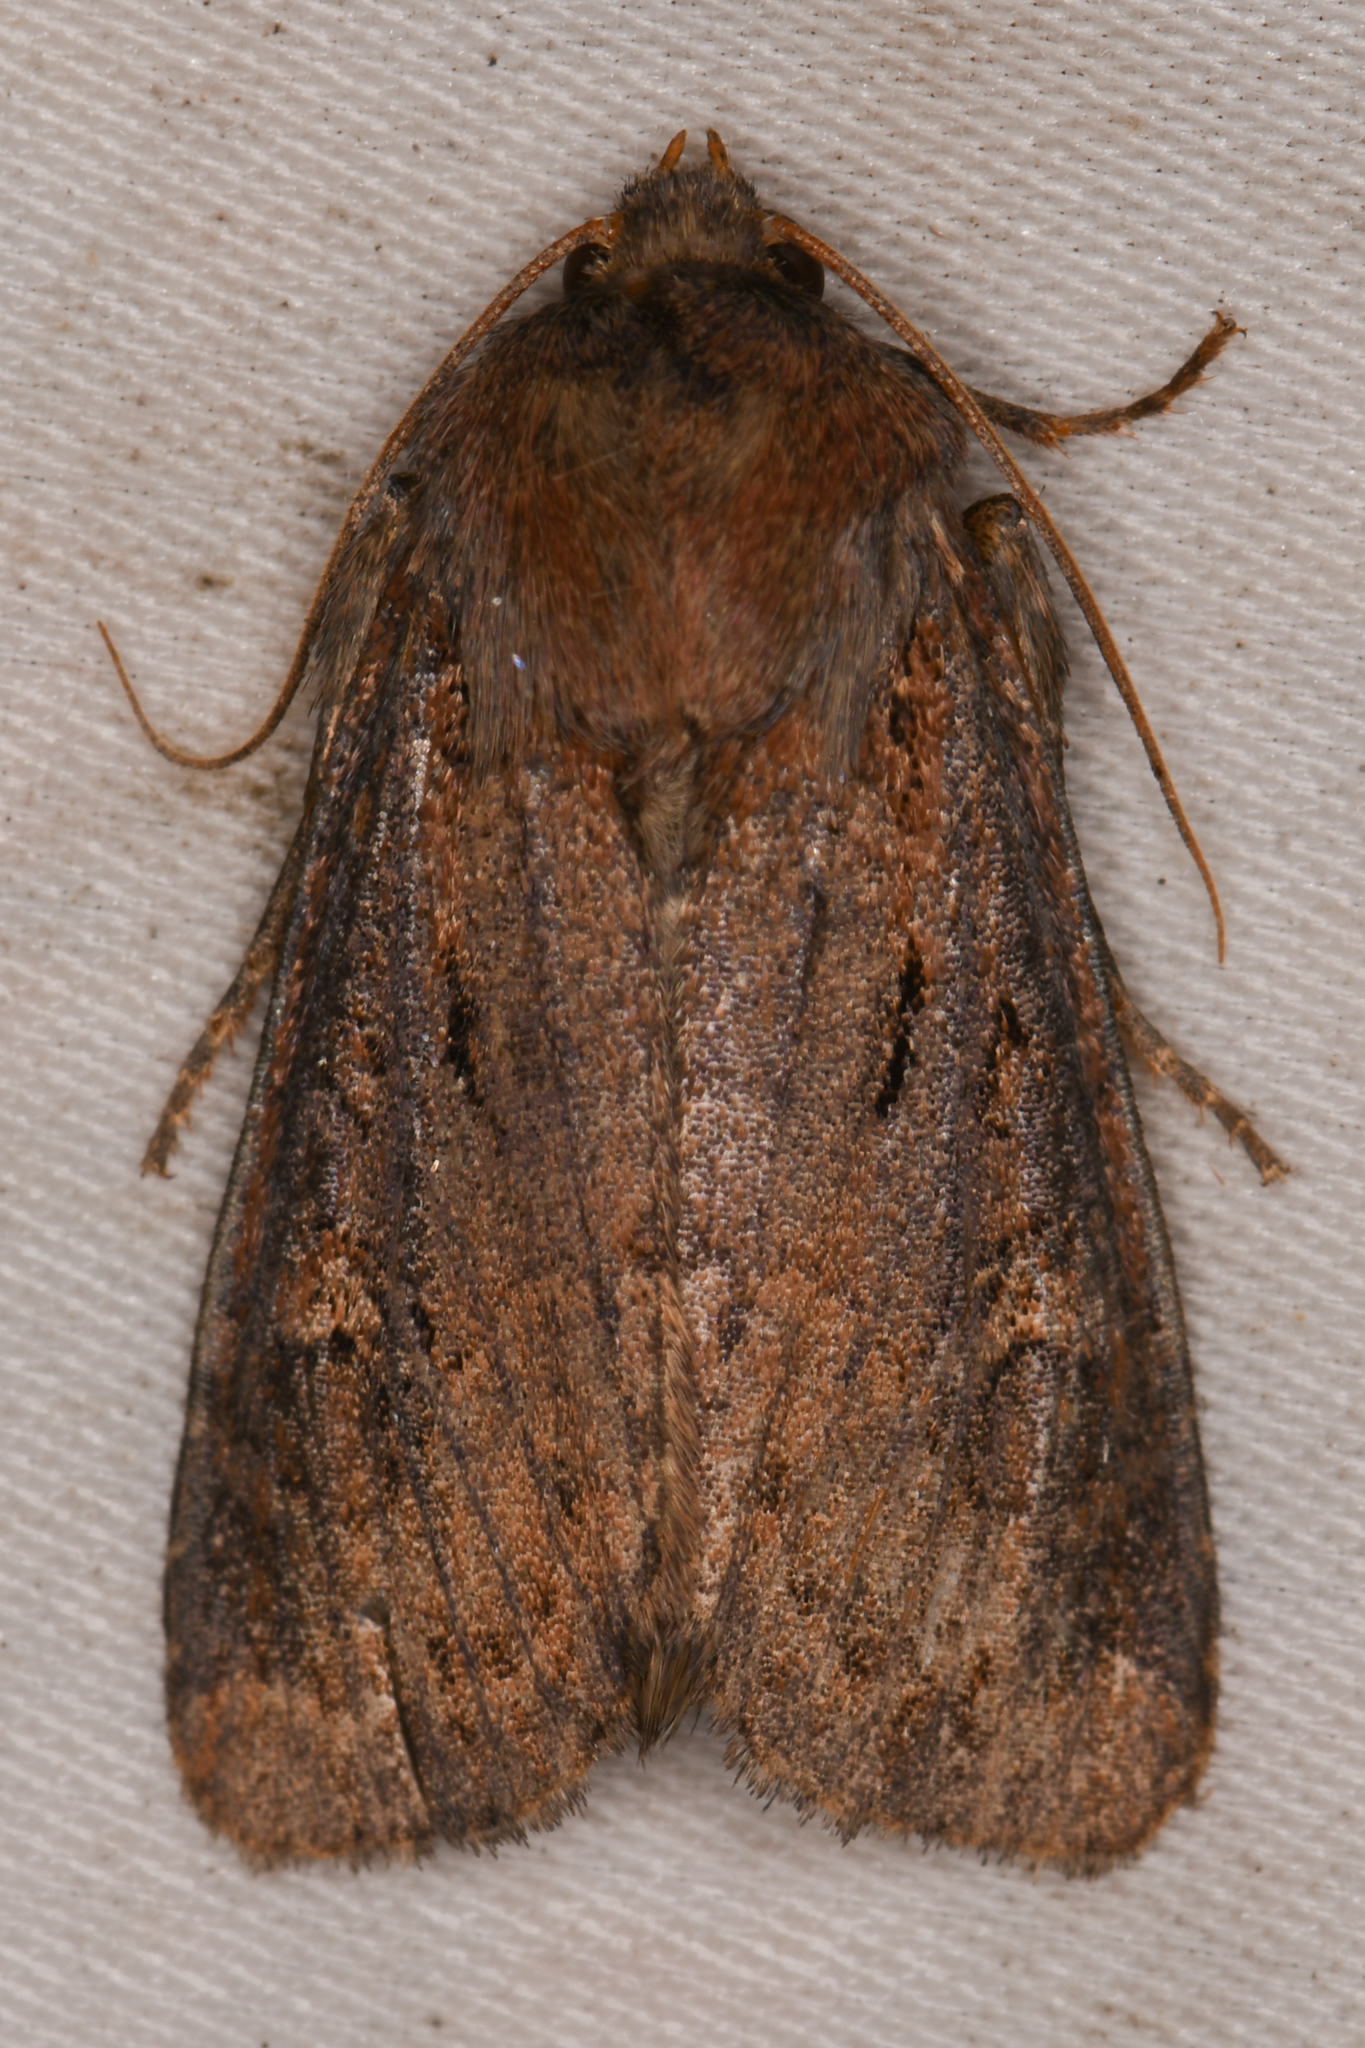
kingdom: Animalia
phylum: Arthropoda
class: Insecta
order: Lepidoptera
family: Noctuidae
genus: Resapamea
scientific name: Resapamea passer
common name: Dock rustic moth
